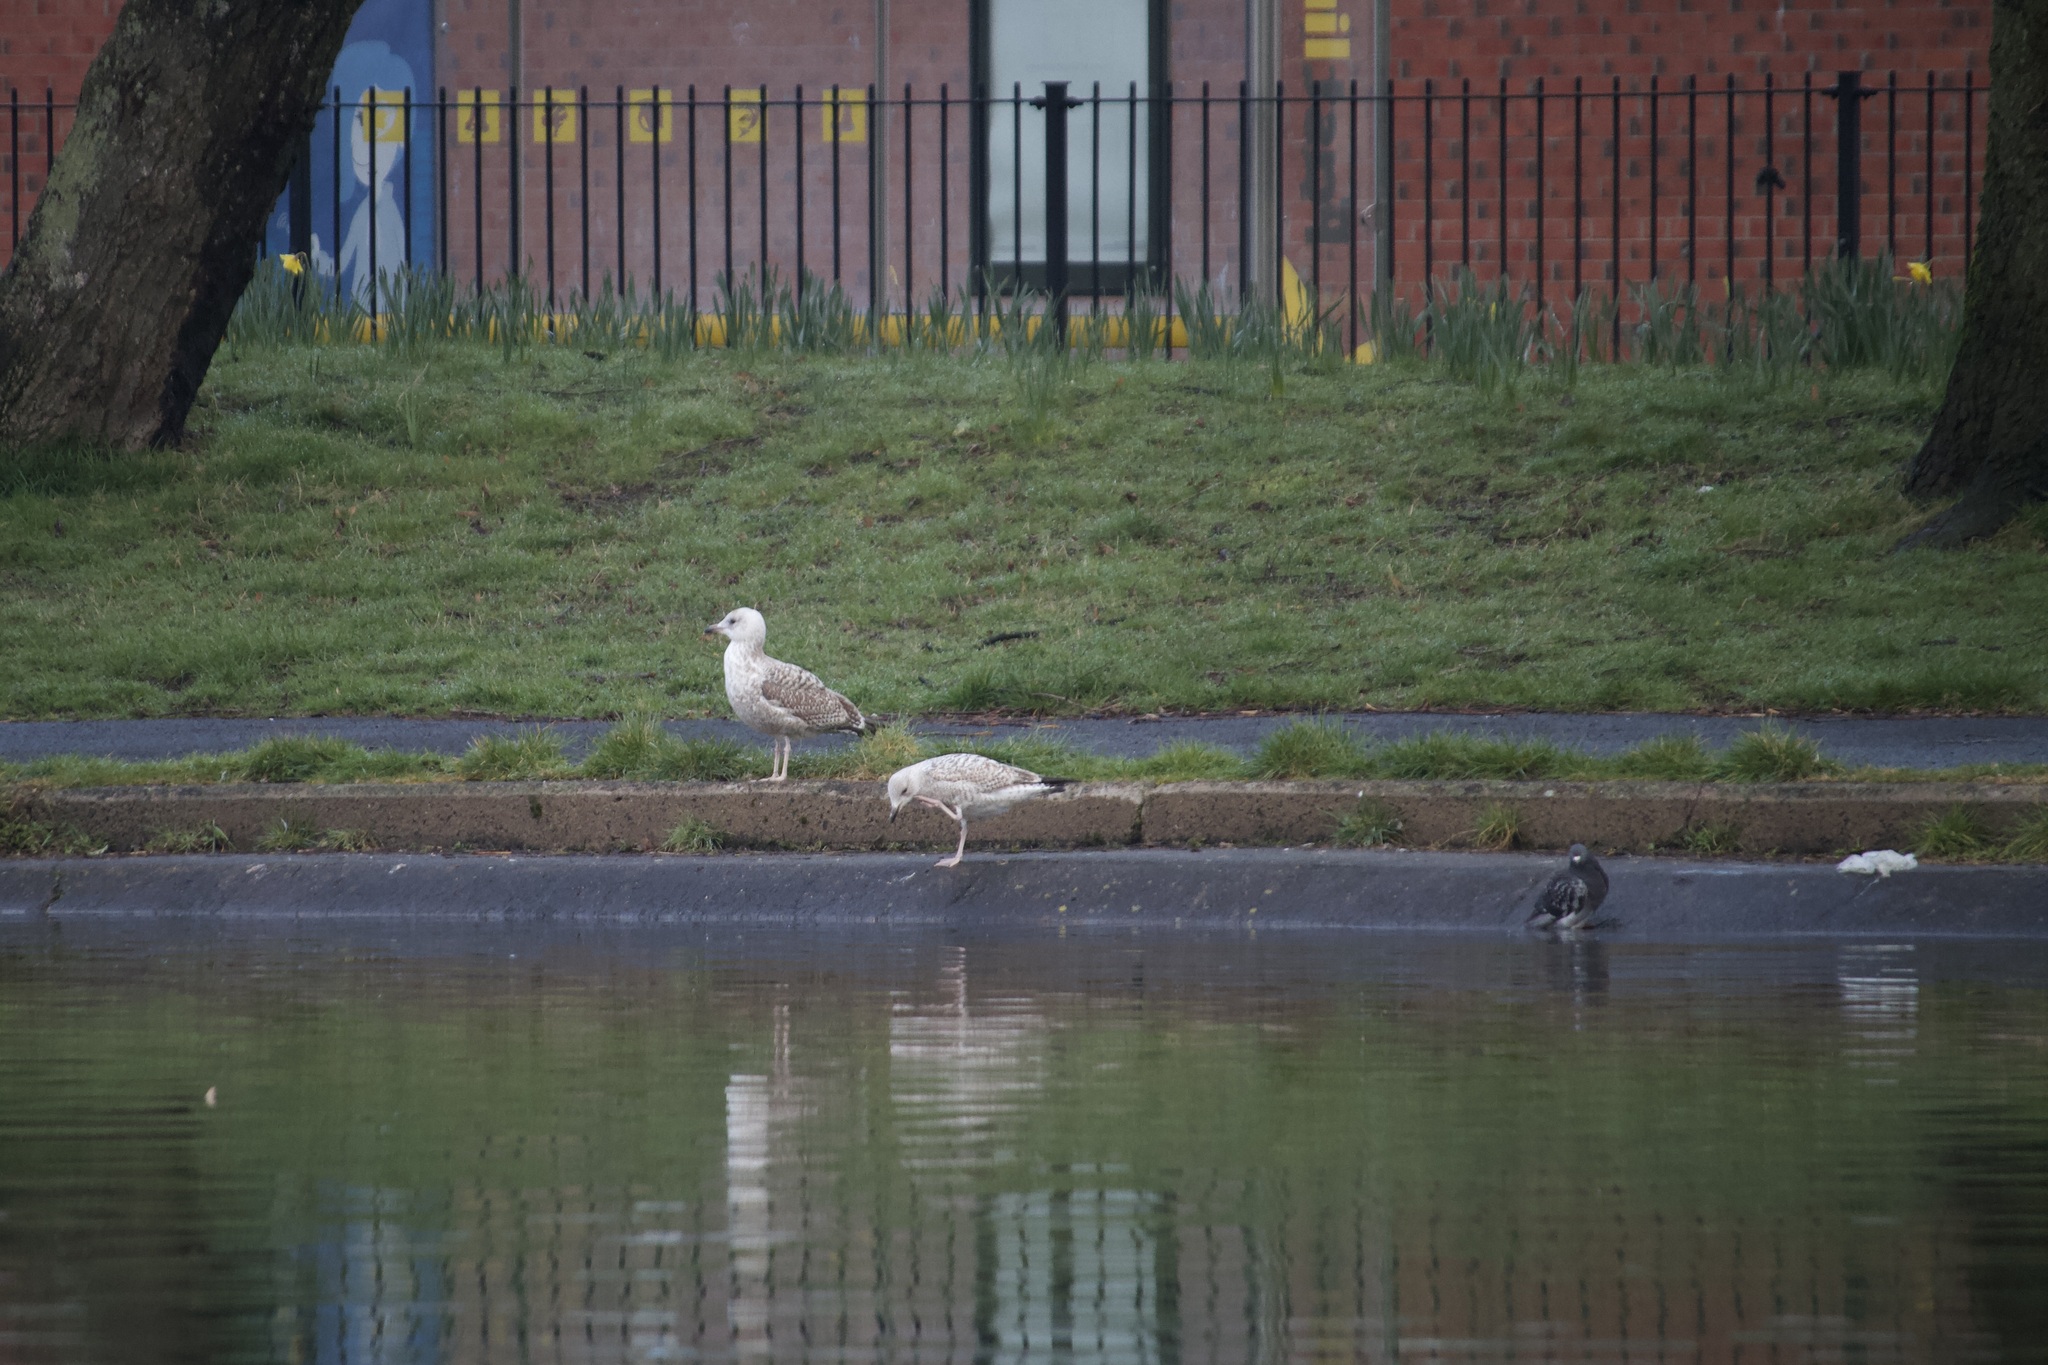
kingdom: Animalia
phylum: Chordata
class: Aves
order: Charadriiformes
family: Laridae
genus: Larus
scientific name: Larus argentatus
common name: Herring gull
